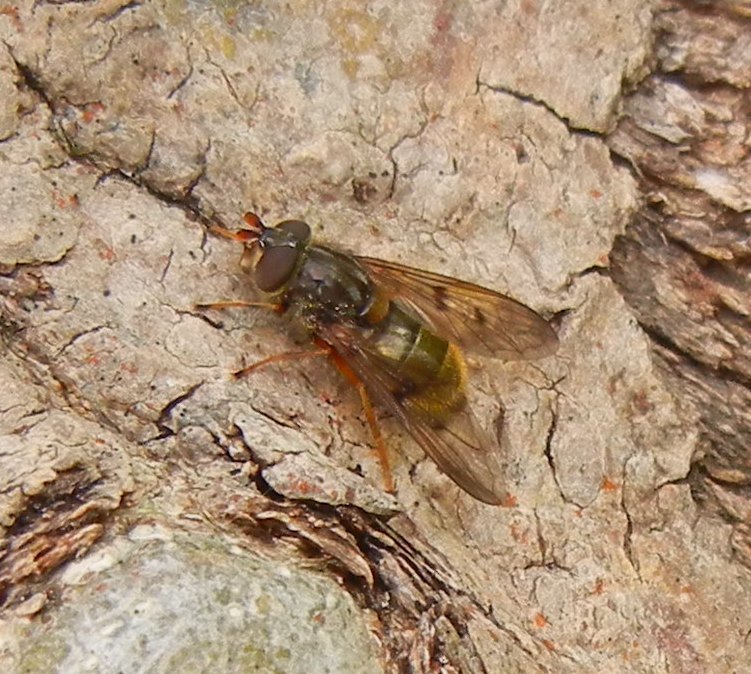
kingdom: Animalia
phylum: Arthropoda
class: Insecta
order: Diptera
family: Syrphidae
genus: Ferdinandea
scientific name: Ferdinandea cuprea
